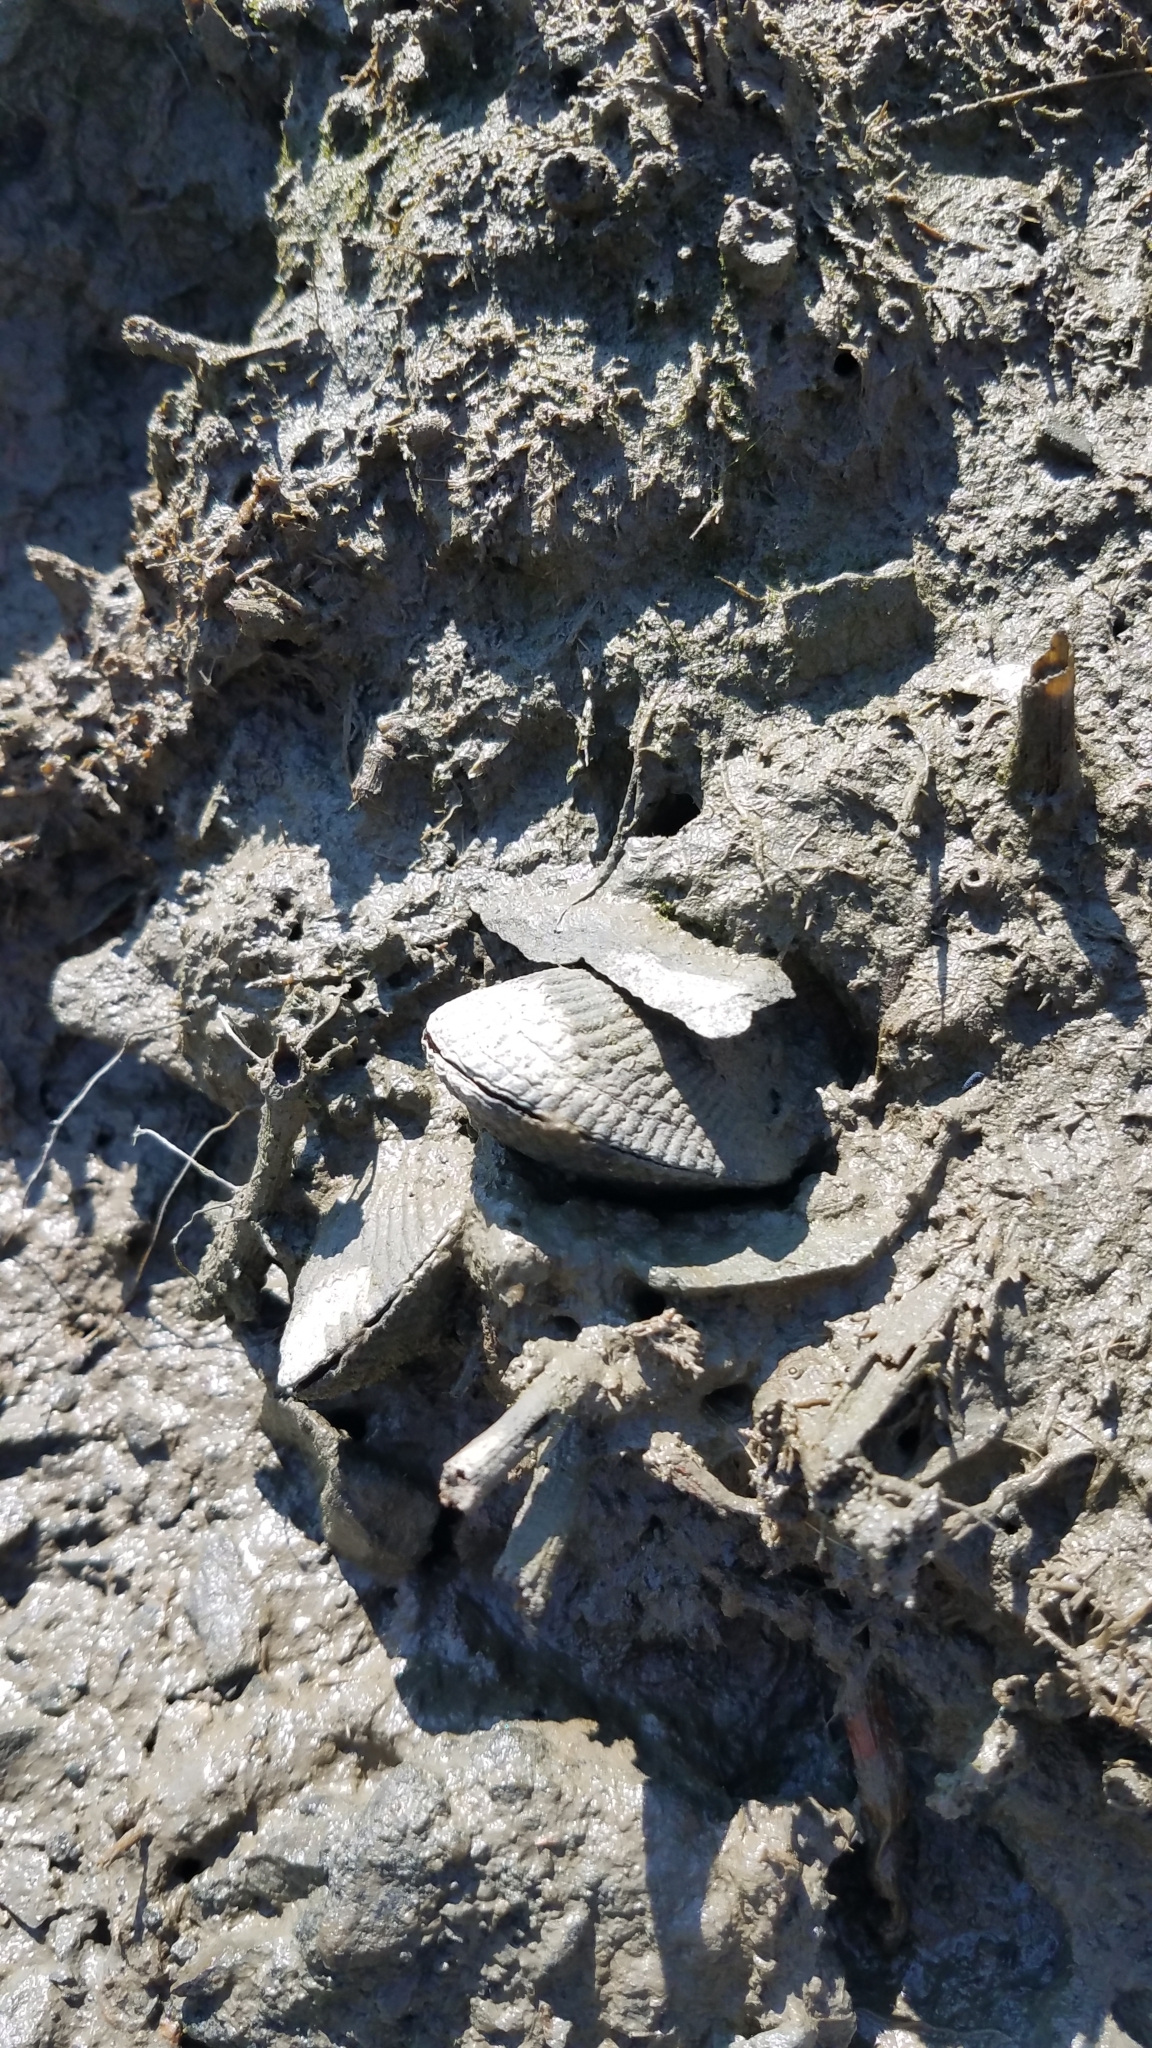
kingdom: Animalia
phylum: Mollusca
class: Bivalvia
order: Mytilida
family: Mytilidae
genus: Geukensia
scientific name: Geukensia demissa
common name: Ribbed mussel
